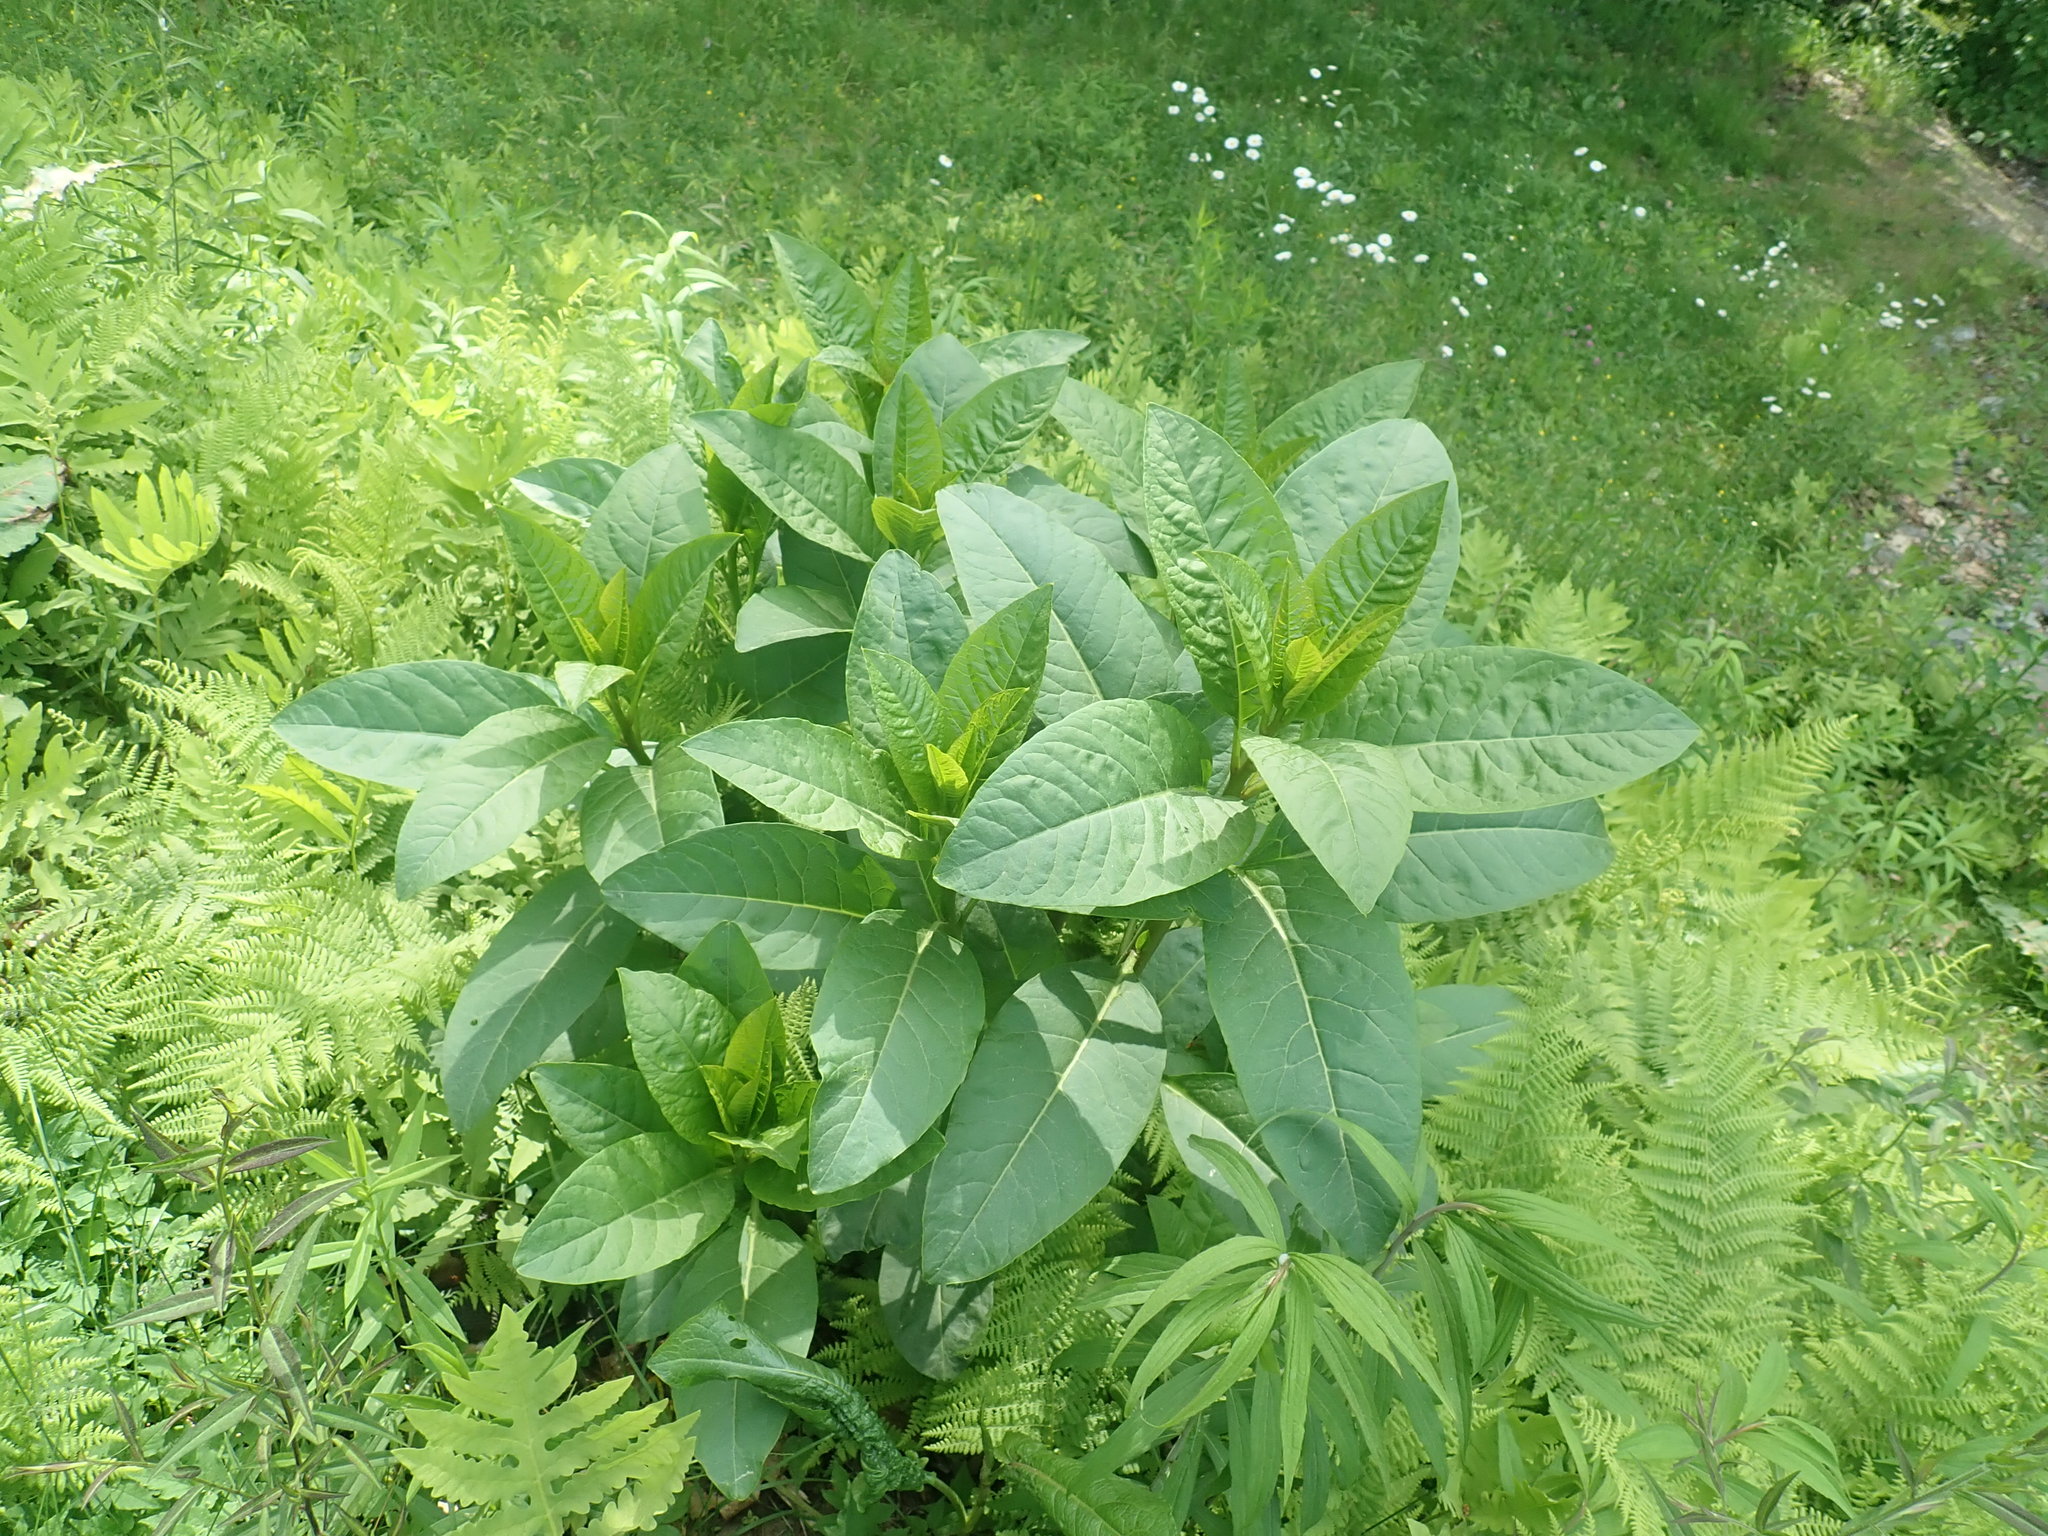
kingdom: Plantae
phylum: Tracheophyta
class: Magnoliopsida
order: Caryophyllales
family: Phytolaccaceae
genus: Phytolacca
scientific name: Phytolacca americana
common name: American pokeweed
